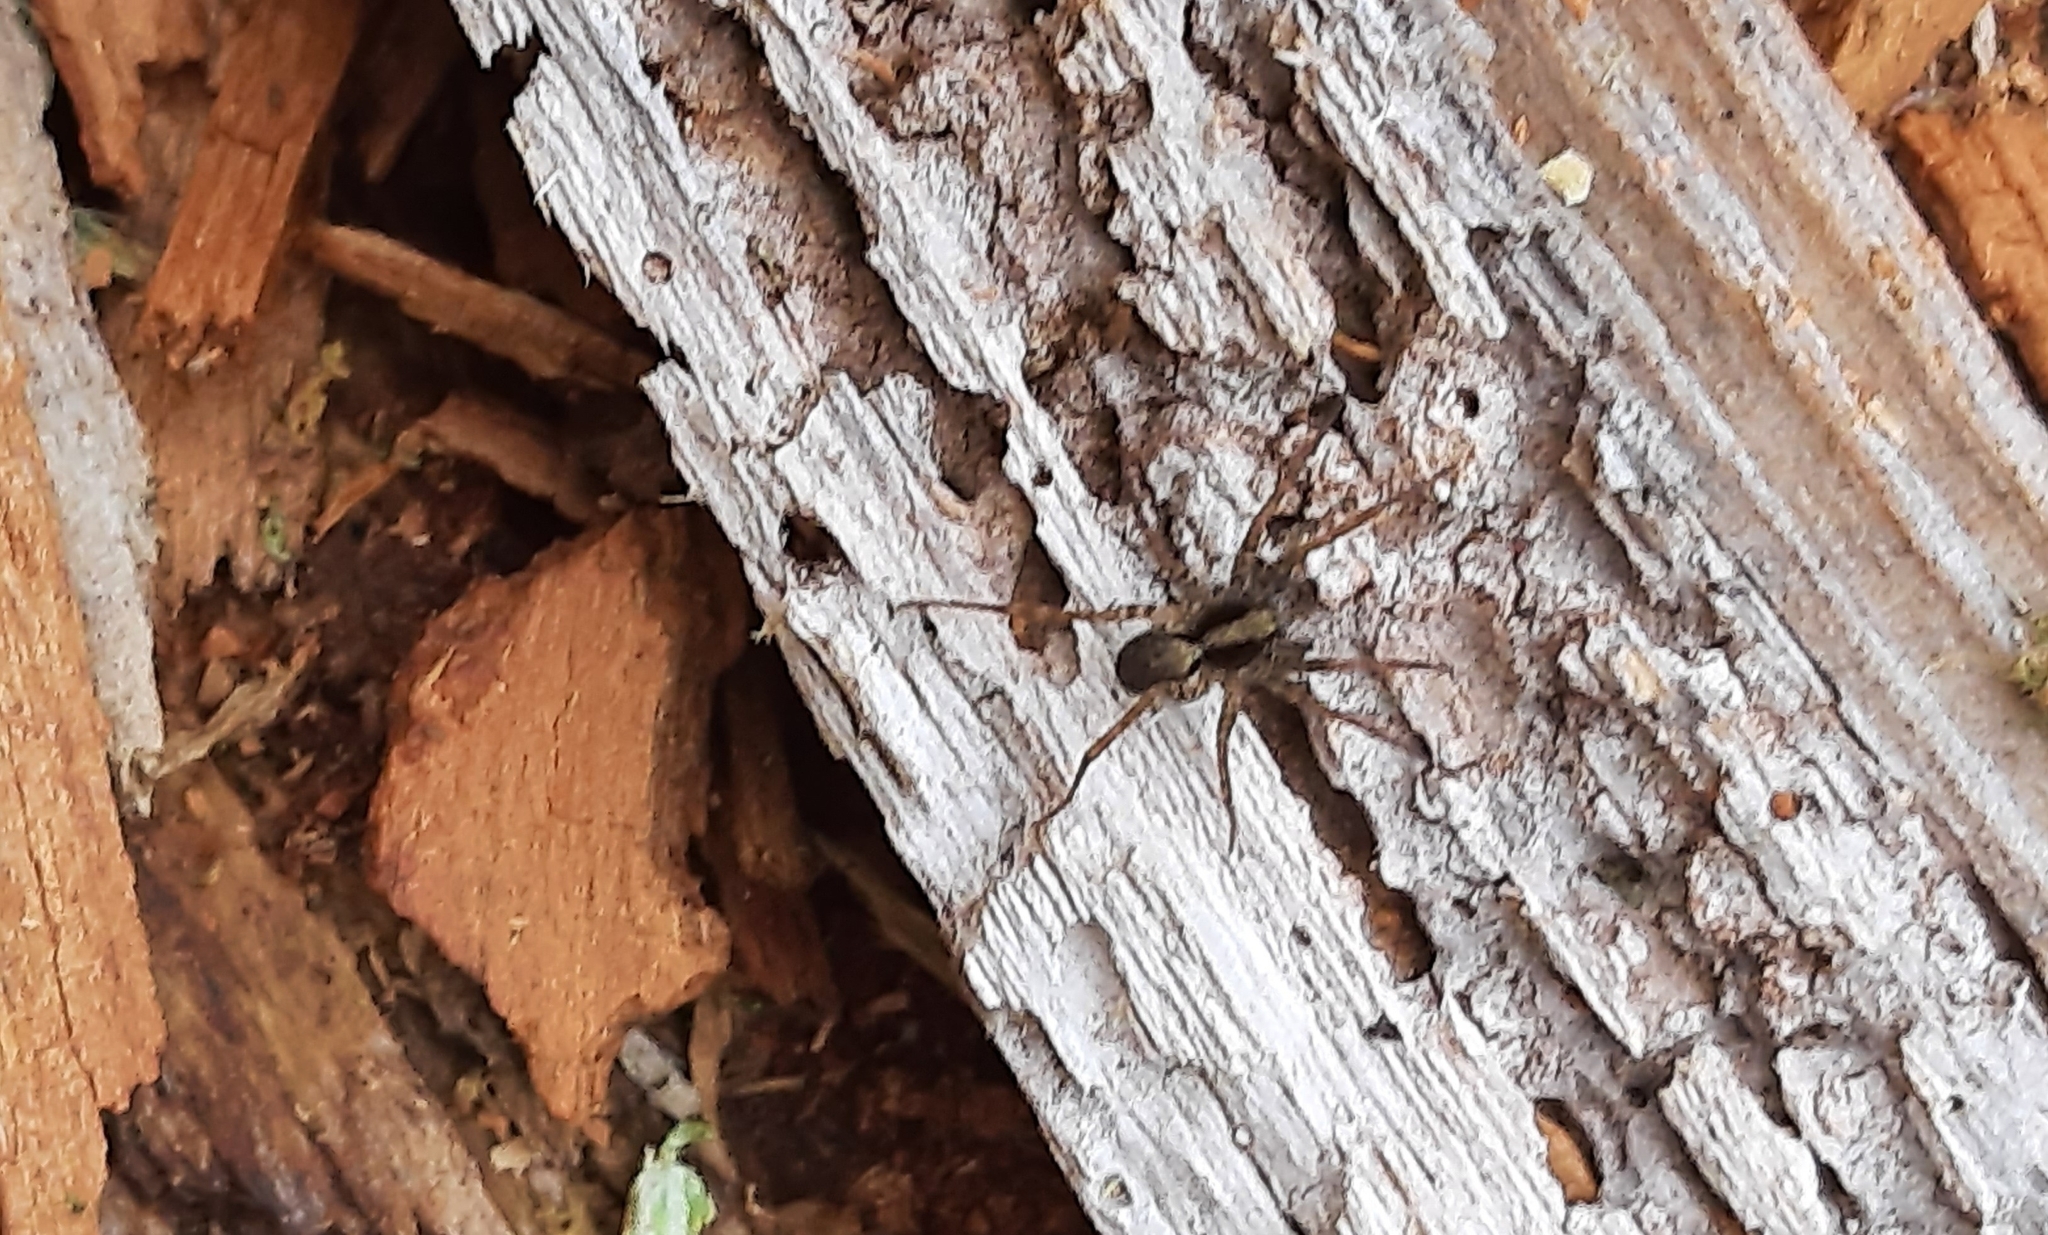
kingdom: Animalia
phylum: Arthropoda
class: Arachnida
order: Araneae
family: Lycosidae
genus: Pardosa
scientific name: Pardosa
